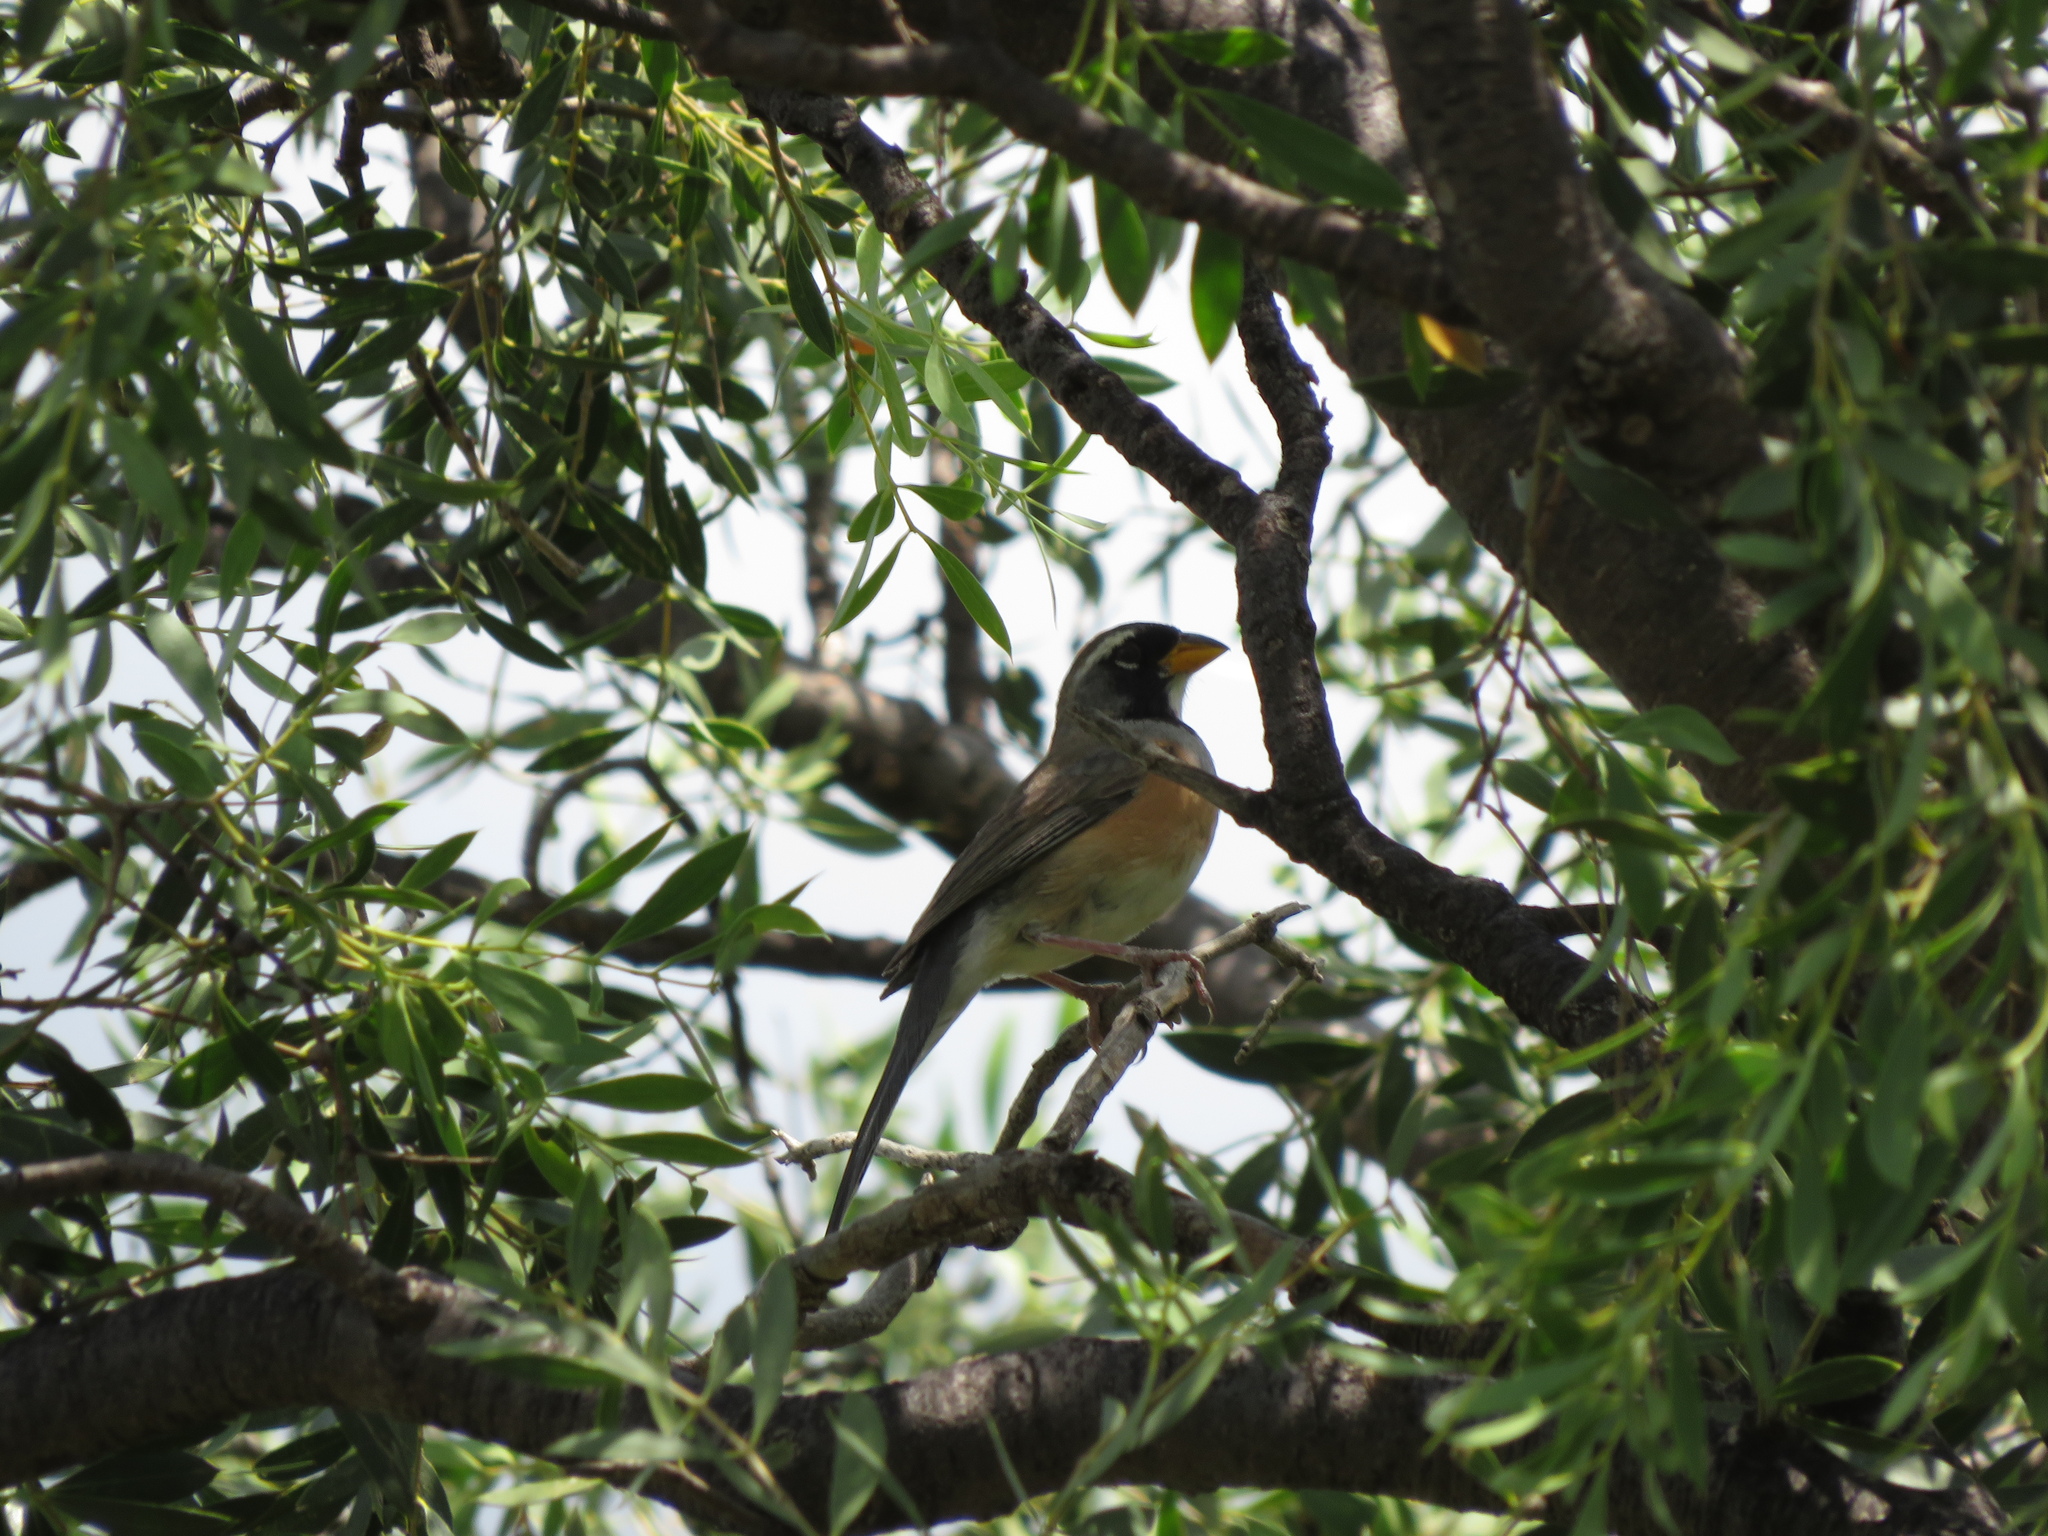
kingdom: Animalia
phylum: Chordata
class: Aves
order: Passeriformes
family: Thraupidae
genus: Saltatricula
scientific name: Saltatricula multicolor
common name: Many-colored chaco finch
